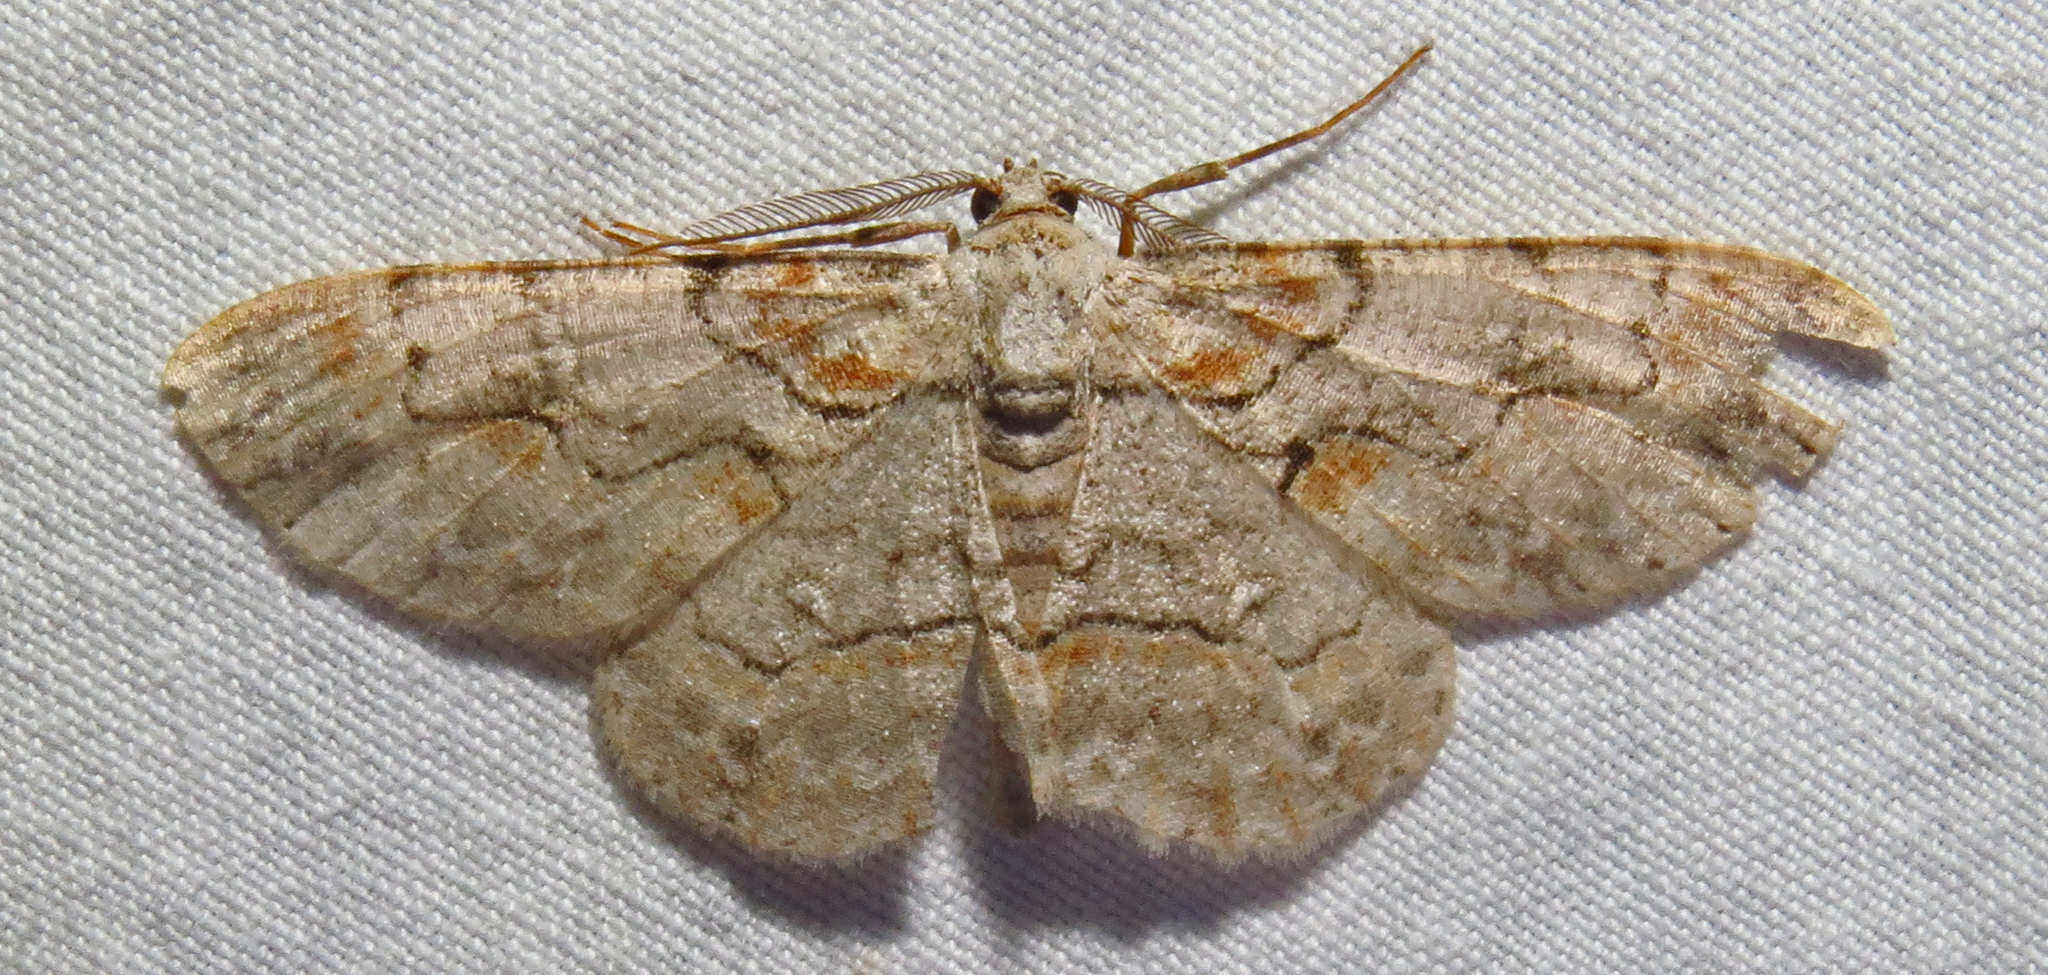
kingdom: Animalia
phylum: Arthropoda
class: Insecta
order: Lepidoptera
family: Geometridae
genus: Iridopsis
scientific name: Iridopsis defectaria
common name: Brown-shaded gray
